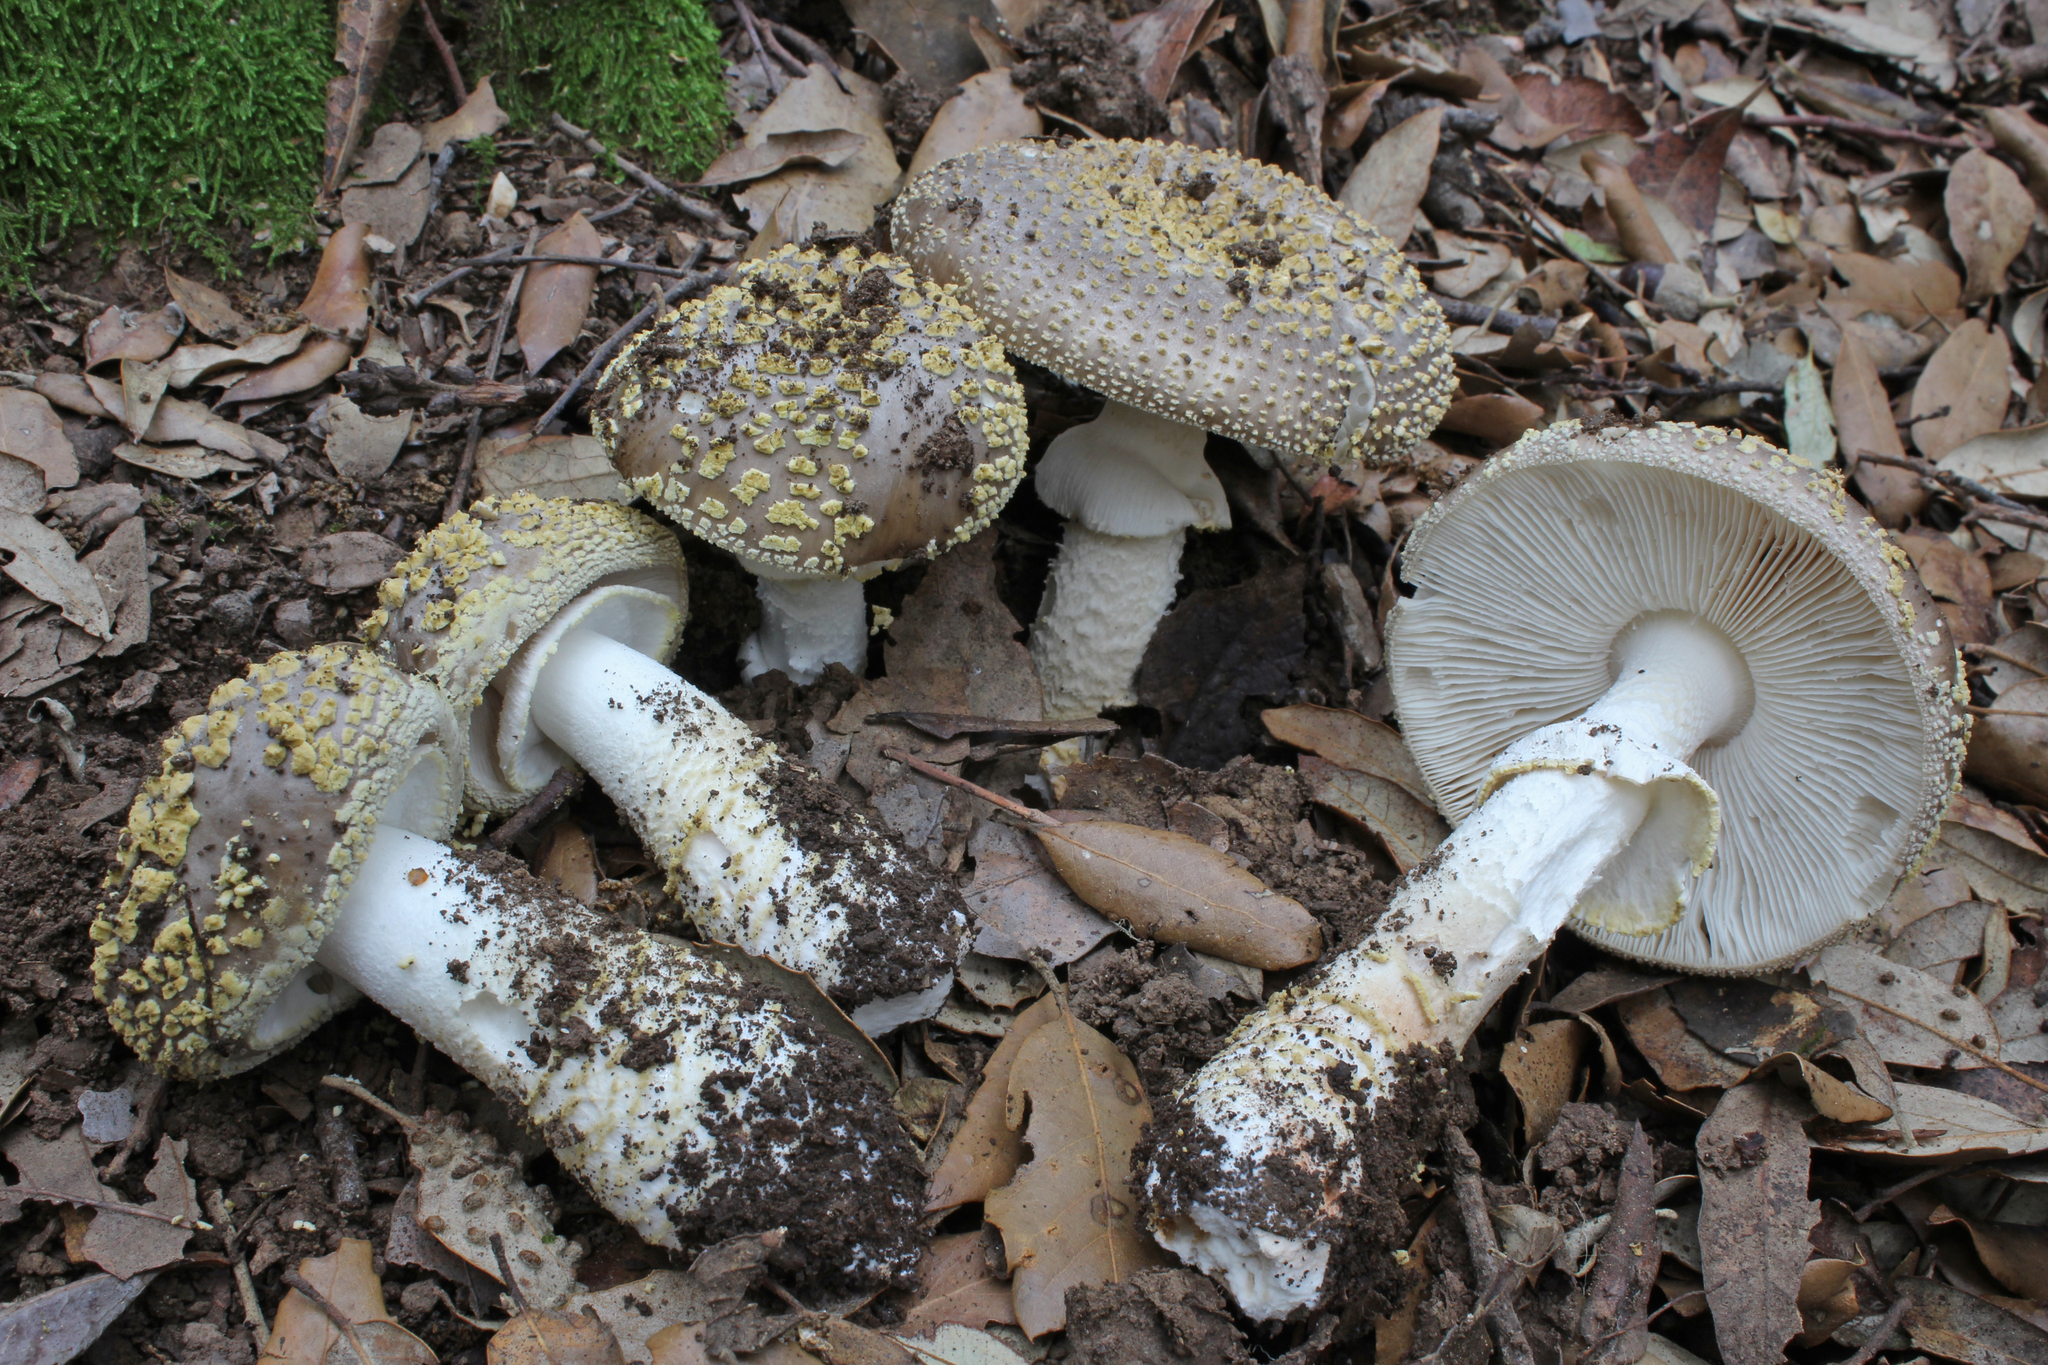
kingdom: Fungi
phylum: Basidiomycota
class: Agaricomycetes
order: Agaricales
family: Amanitaceae
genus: Amanita
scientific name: Amanita franchetii
